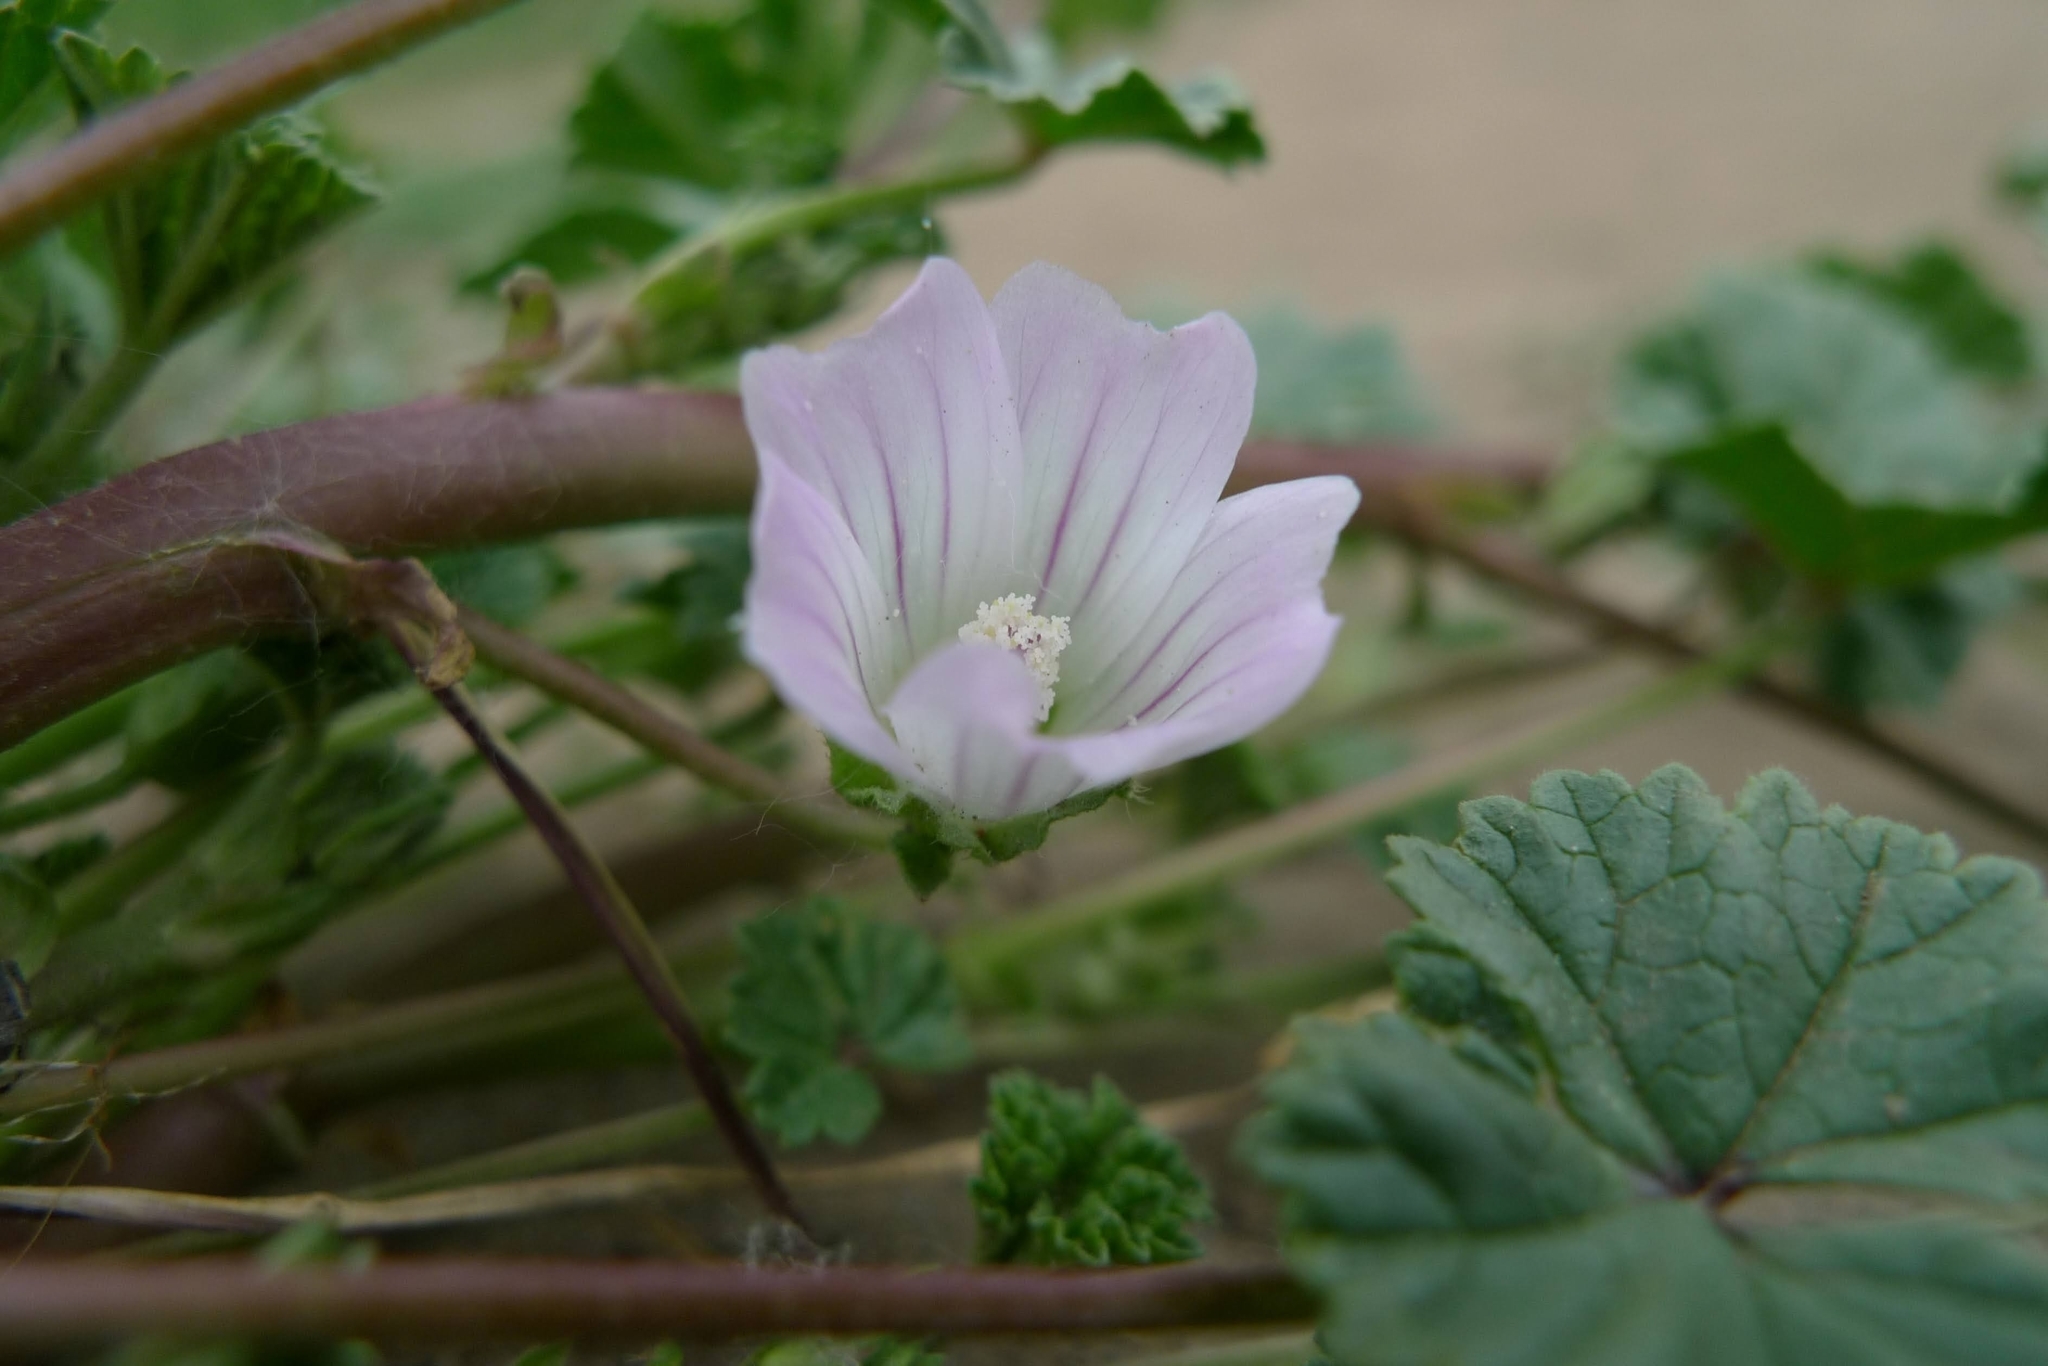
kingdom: Plantae
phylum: Tracheophyta
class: Magnoliopsida
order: Malvales
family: Malvaceae
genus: Malva
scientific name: Malva neglecta
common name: Common mallow
